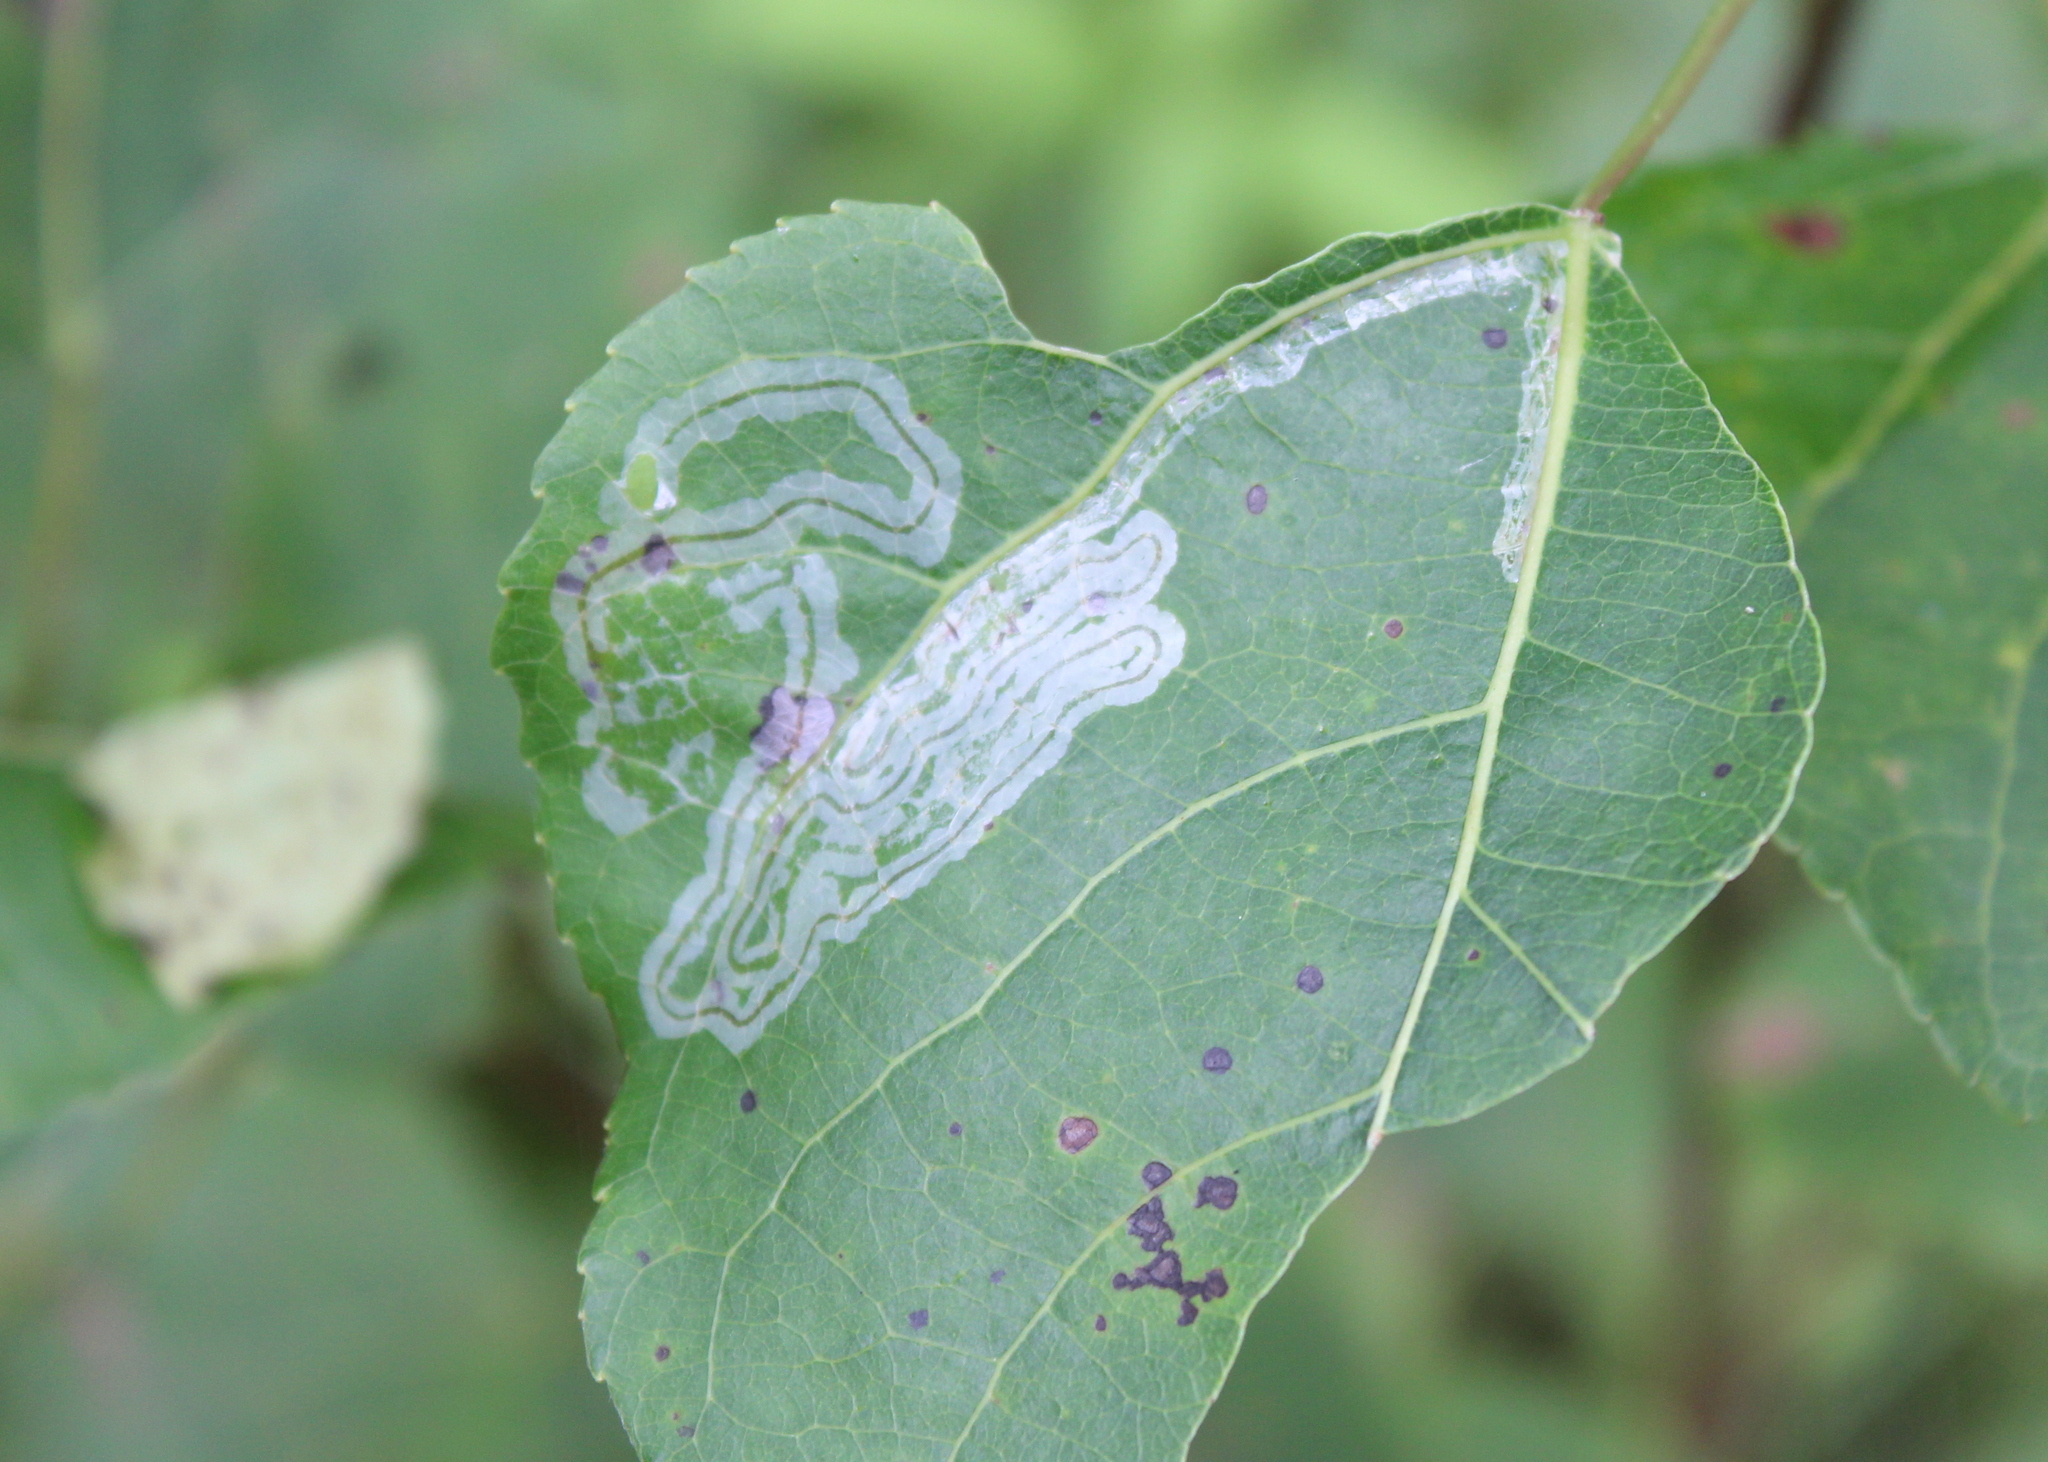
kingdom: Animalia
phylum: Arthropoda
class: Insecta
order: Lepidoptera
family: Gracillariidae
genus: Phyllocnistis
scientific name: Phyllocnistis populiella
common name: Aspen serpentine leafminer moth
